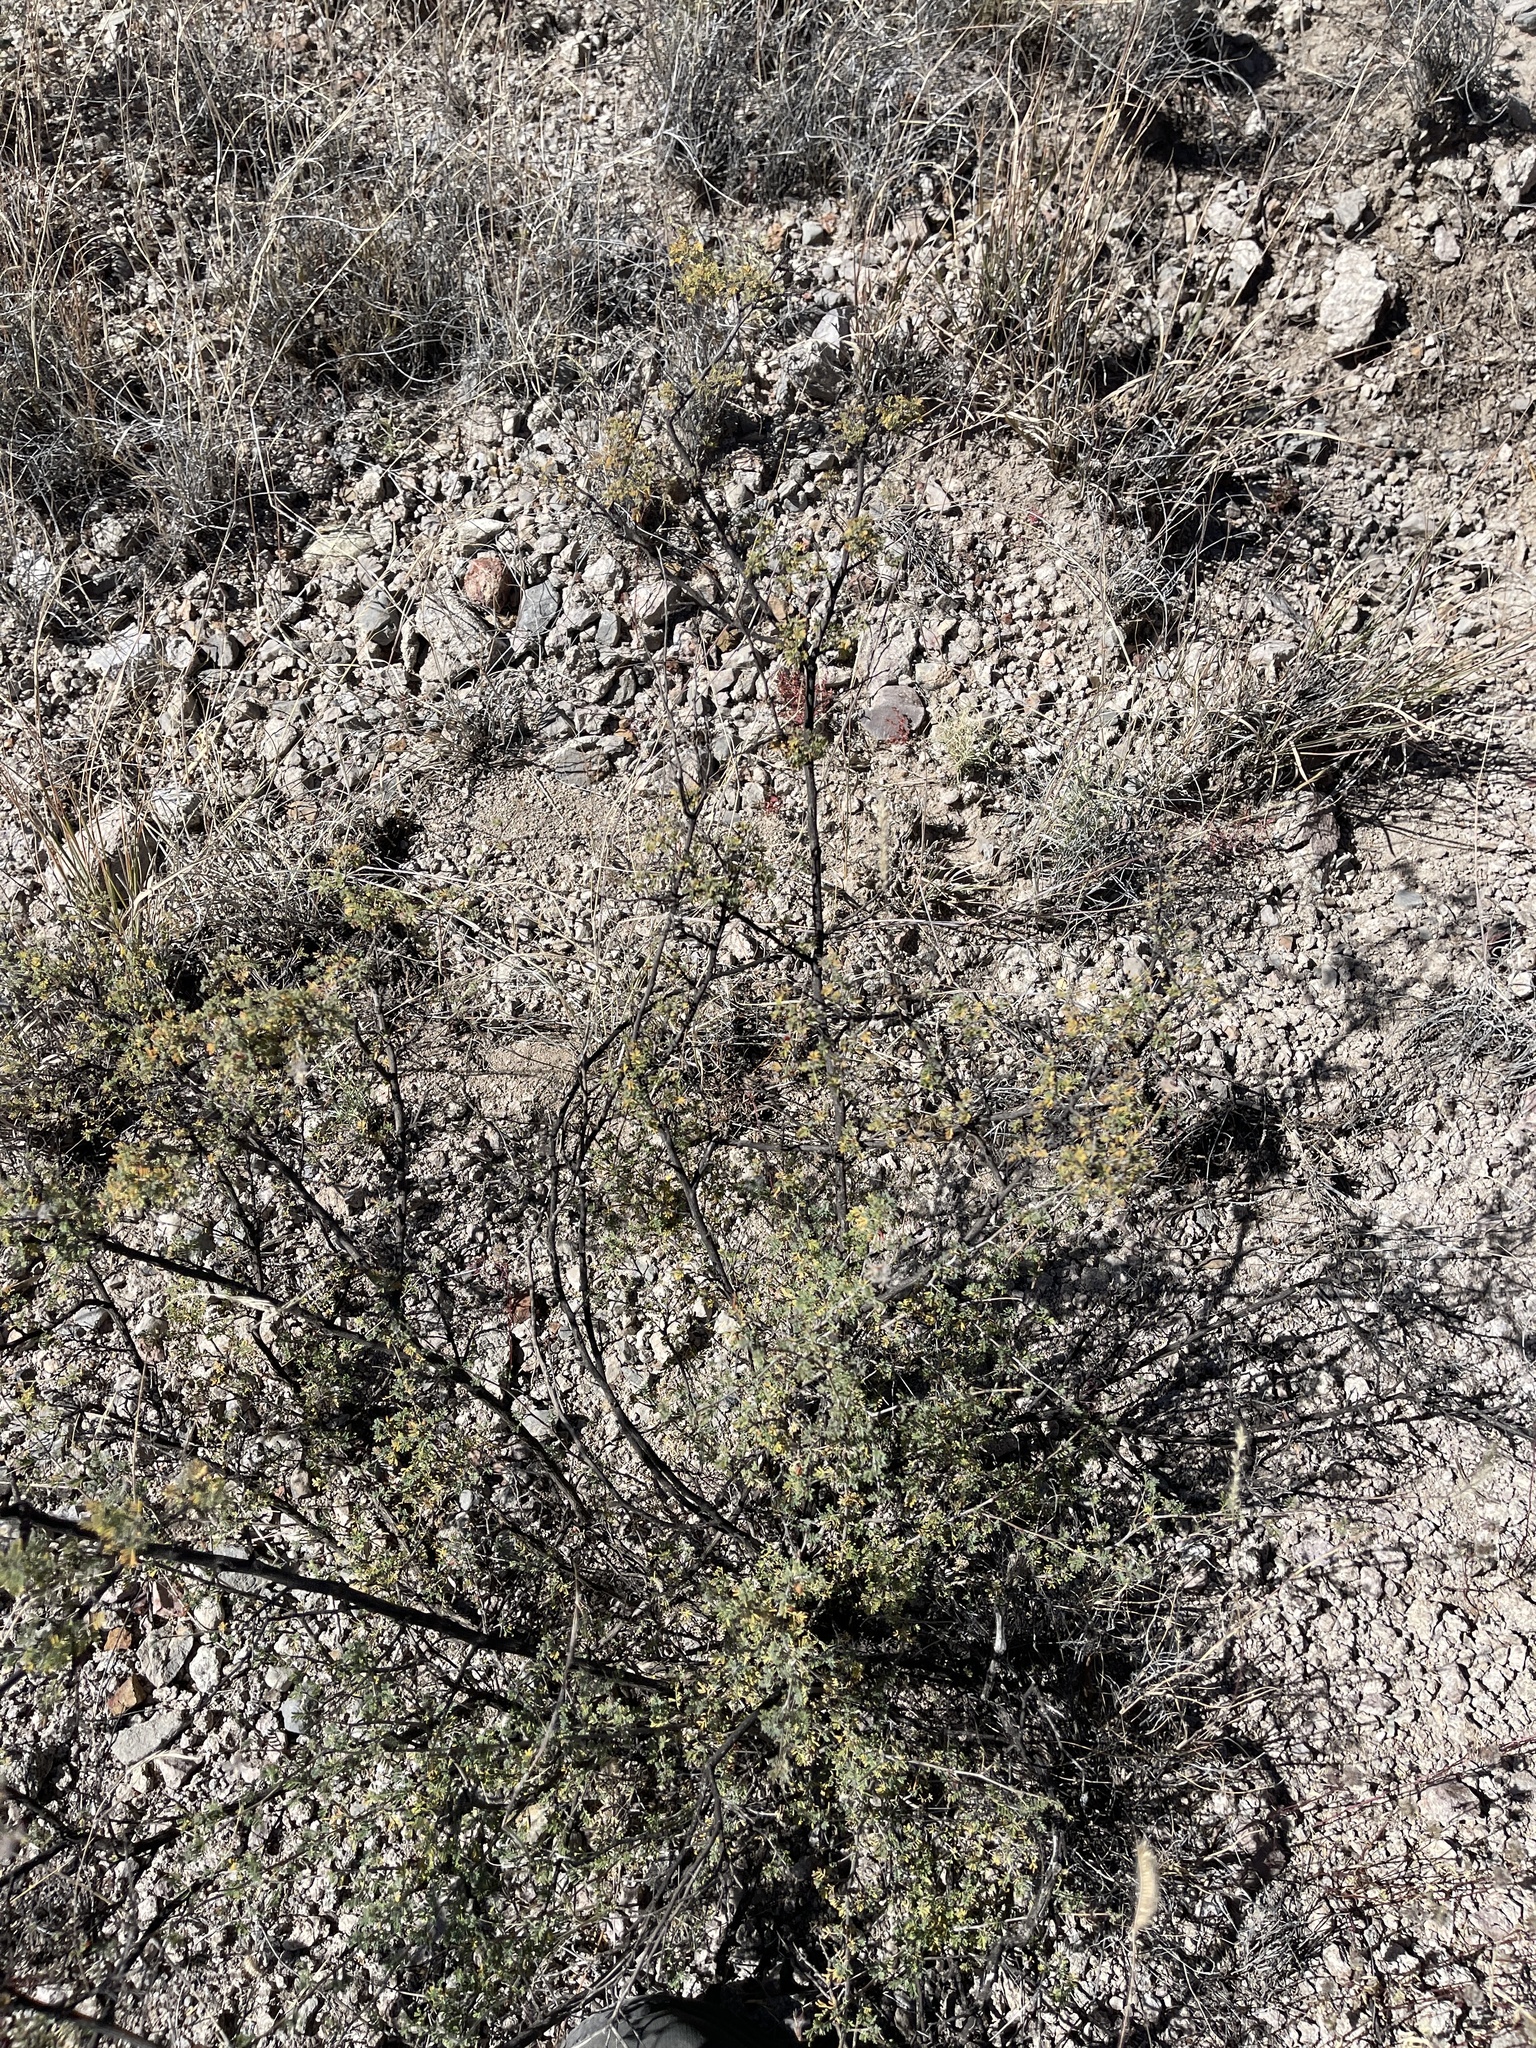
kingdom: Plantae
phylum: Tracheophyta
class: Magnoliopsida
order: Rosales
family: Rosaceae
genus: Fallugia
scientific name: Fallugia paradoxa
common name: Apache-plume
